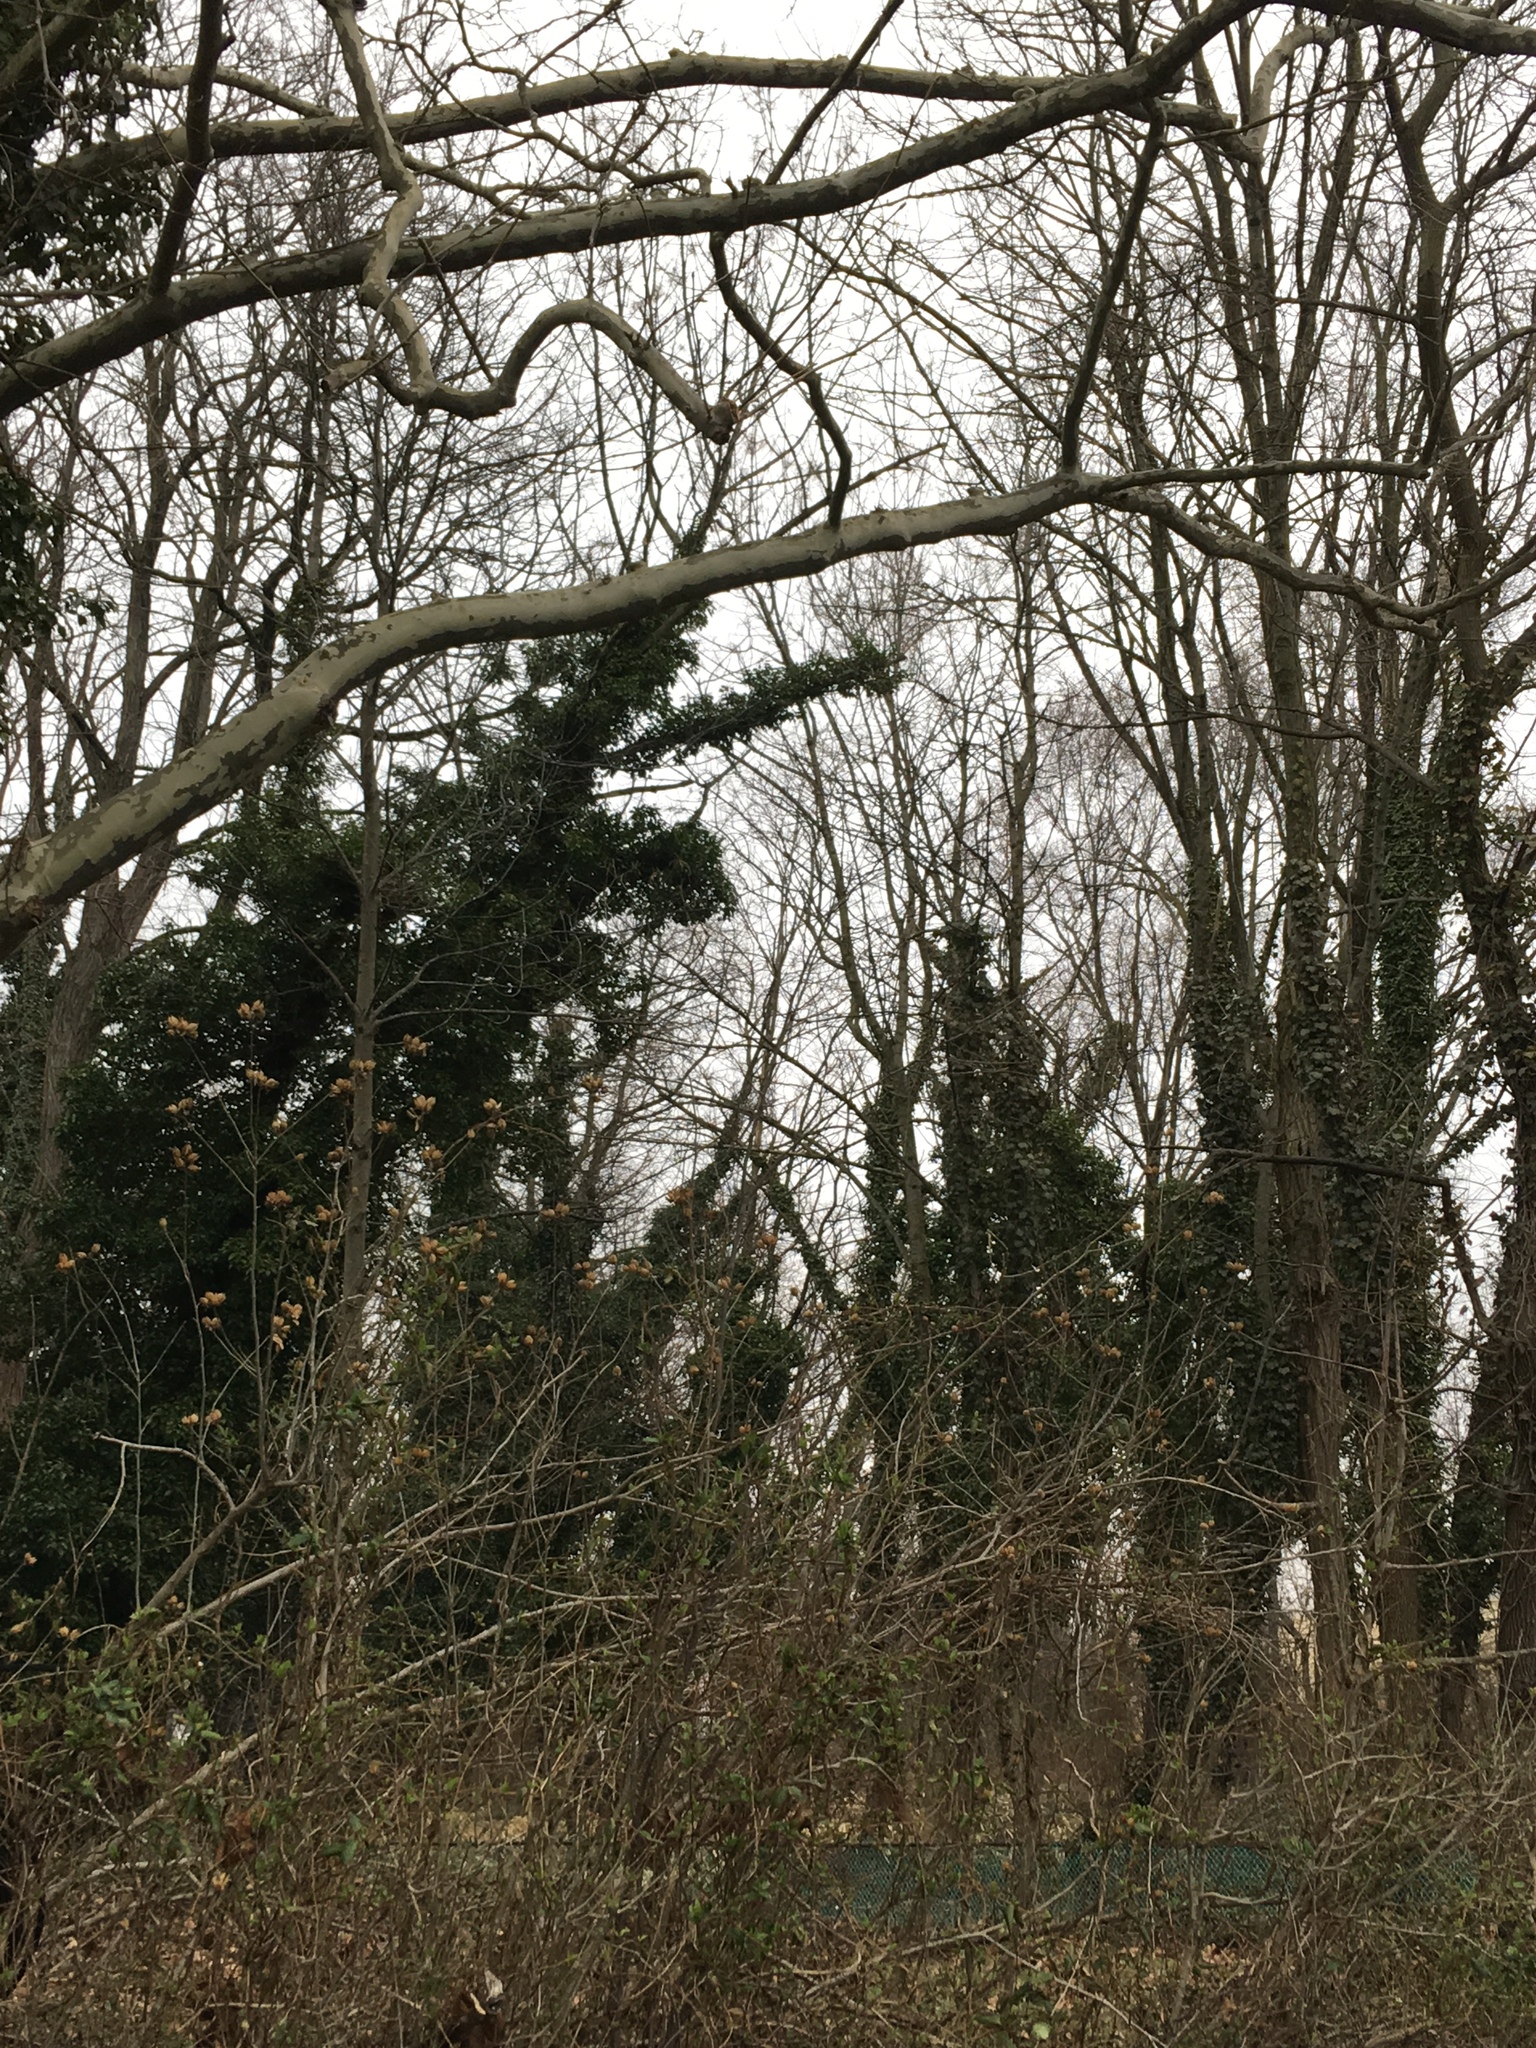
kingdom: Plantae
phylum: Tracheophyta
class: Magnoliopsida
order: Apiales
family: Araliaceae
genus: Hedera
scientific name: Hedera helix
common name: Ivy
